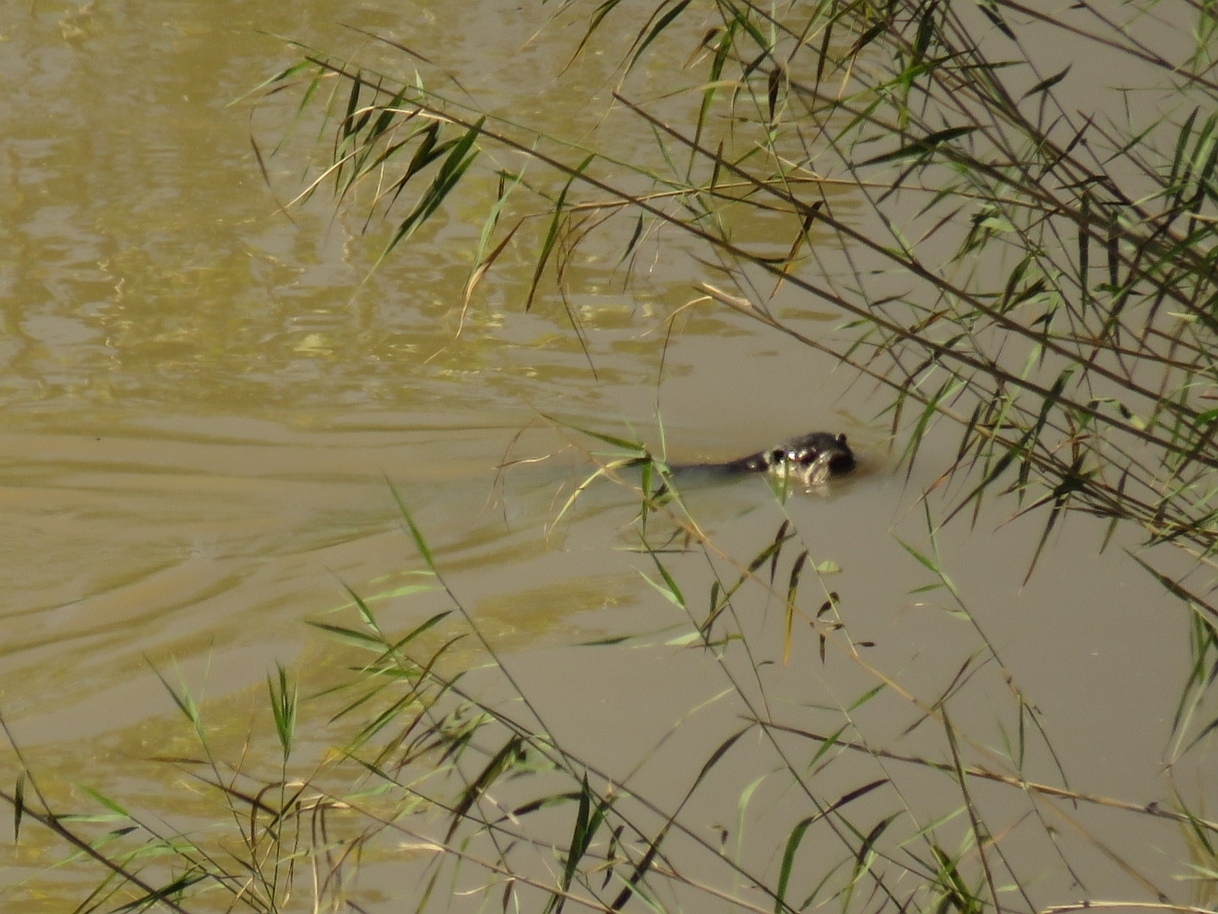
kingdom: Animalia
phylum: Chordata
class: Mammalia
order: Carnivora
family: Mustelidae
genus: Aonyx
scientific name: Aonyx capensis
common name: African clawless otter
